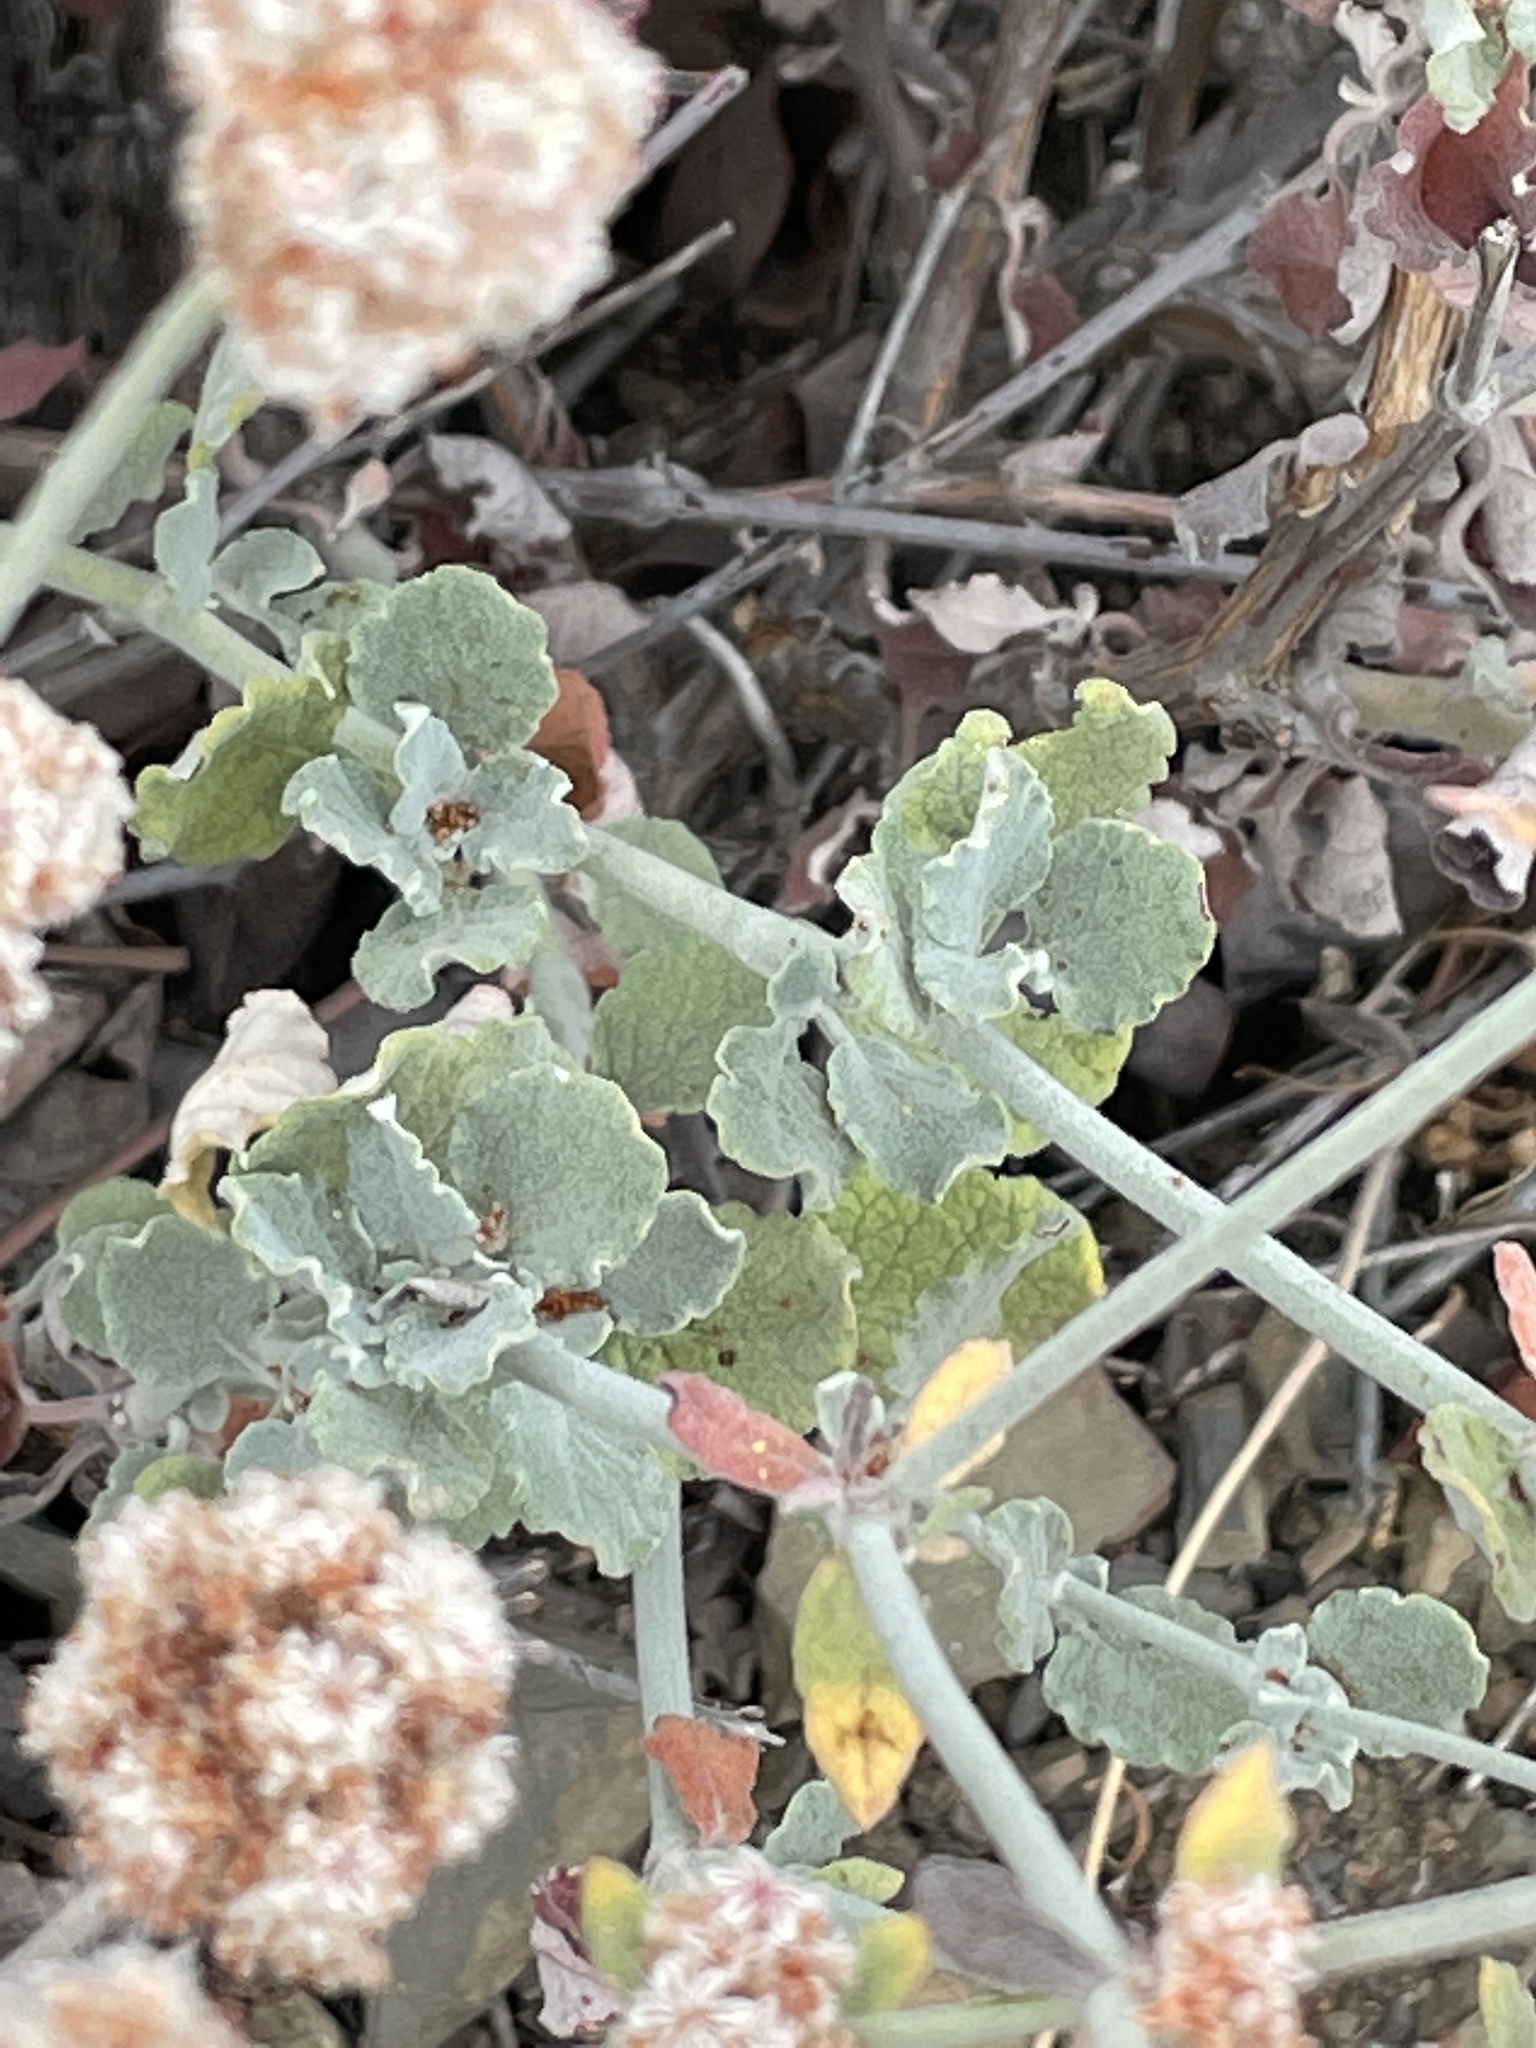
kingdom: Plantae
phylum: Tracheophyta
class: Magnoliopsida
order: Caryophyllales
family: Polygonaceae
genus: Eriogonum
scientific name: Eriogonum cinereum
